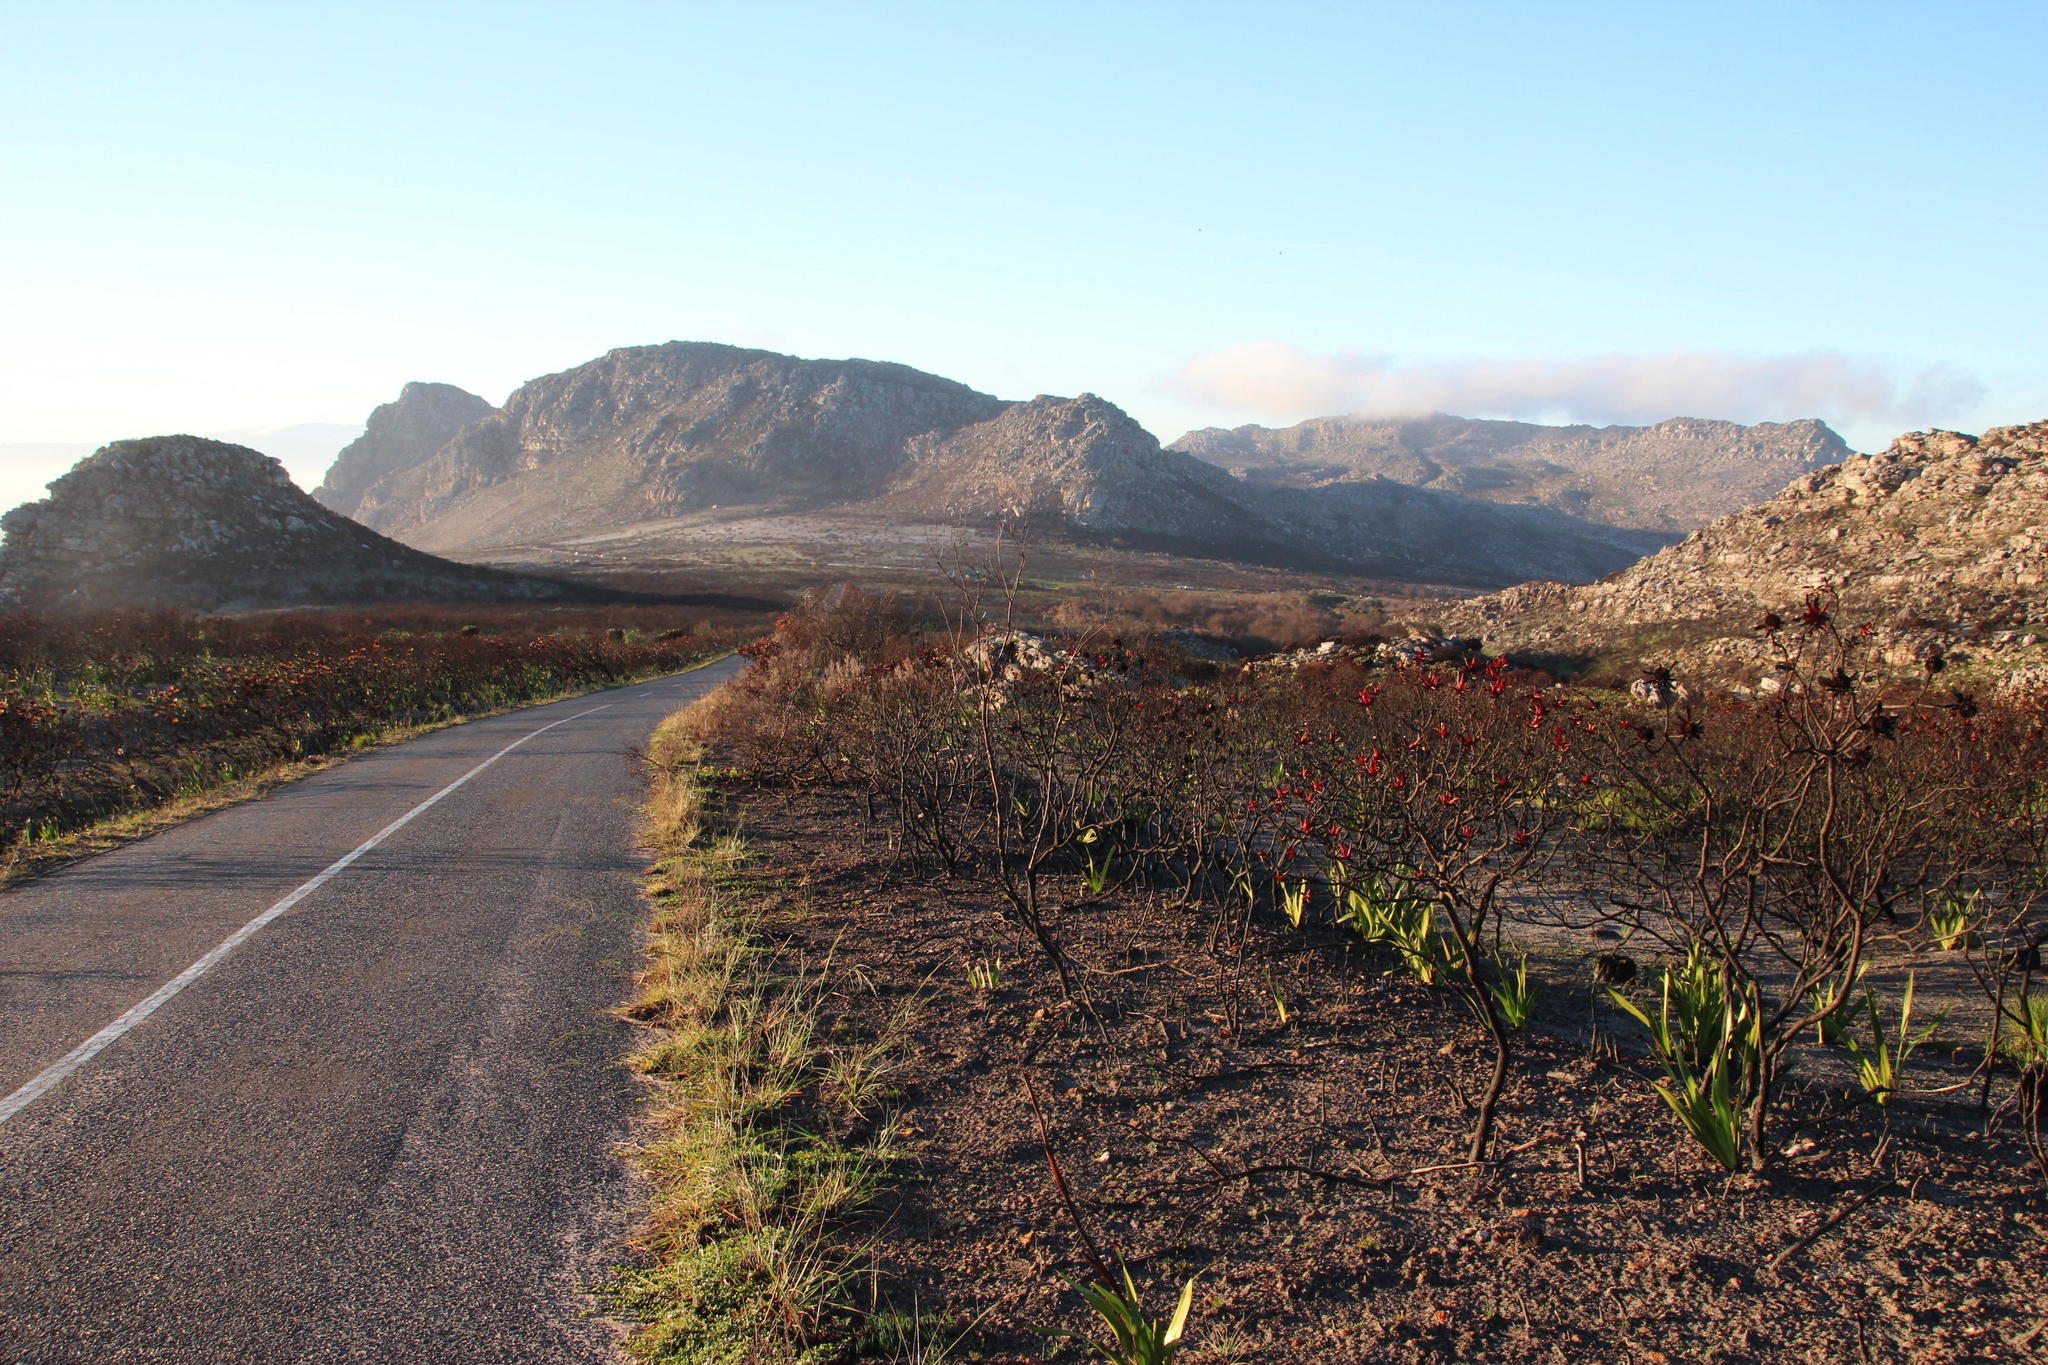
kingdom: Plantae
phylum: Tracheophyta
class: Magnoliopsida
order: Oxalidales
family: Oxalidaceae
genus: Oxalis
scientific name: Oxalis polyphylla
